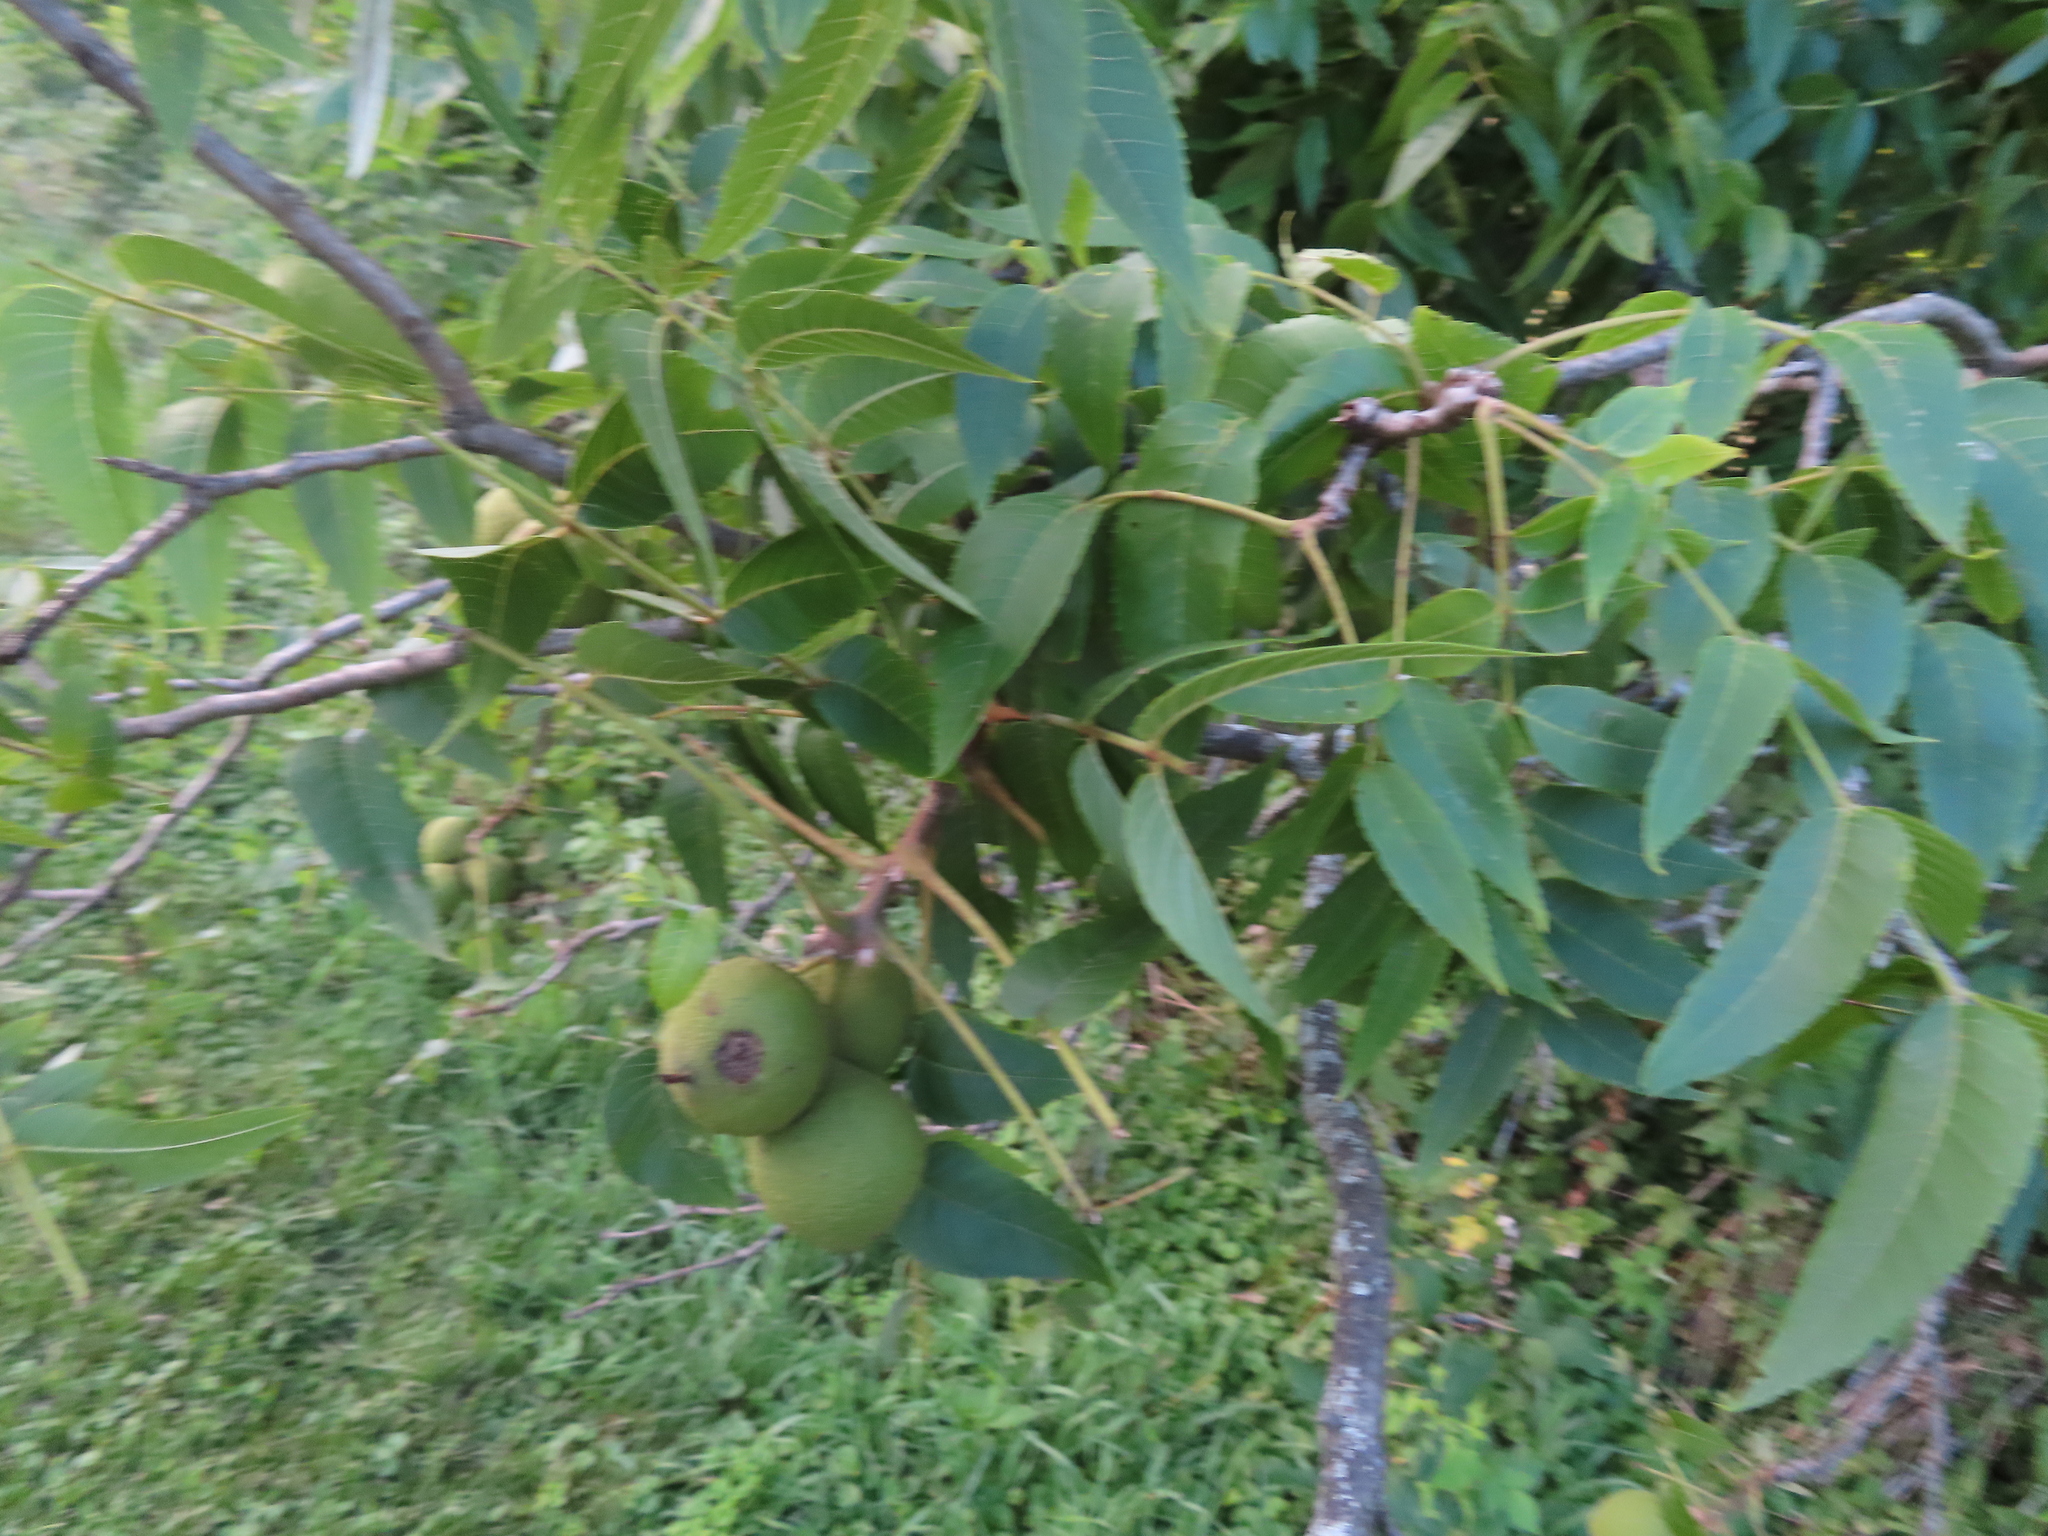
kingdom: Plantae
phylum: Tracheophyta
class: Magnoliopsida
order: Fagales
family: Juglandaceae
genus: Juglans
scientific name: Juglans nigra
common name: Black walnut
